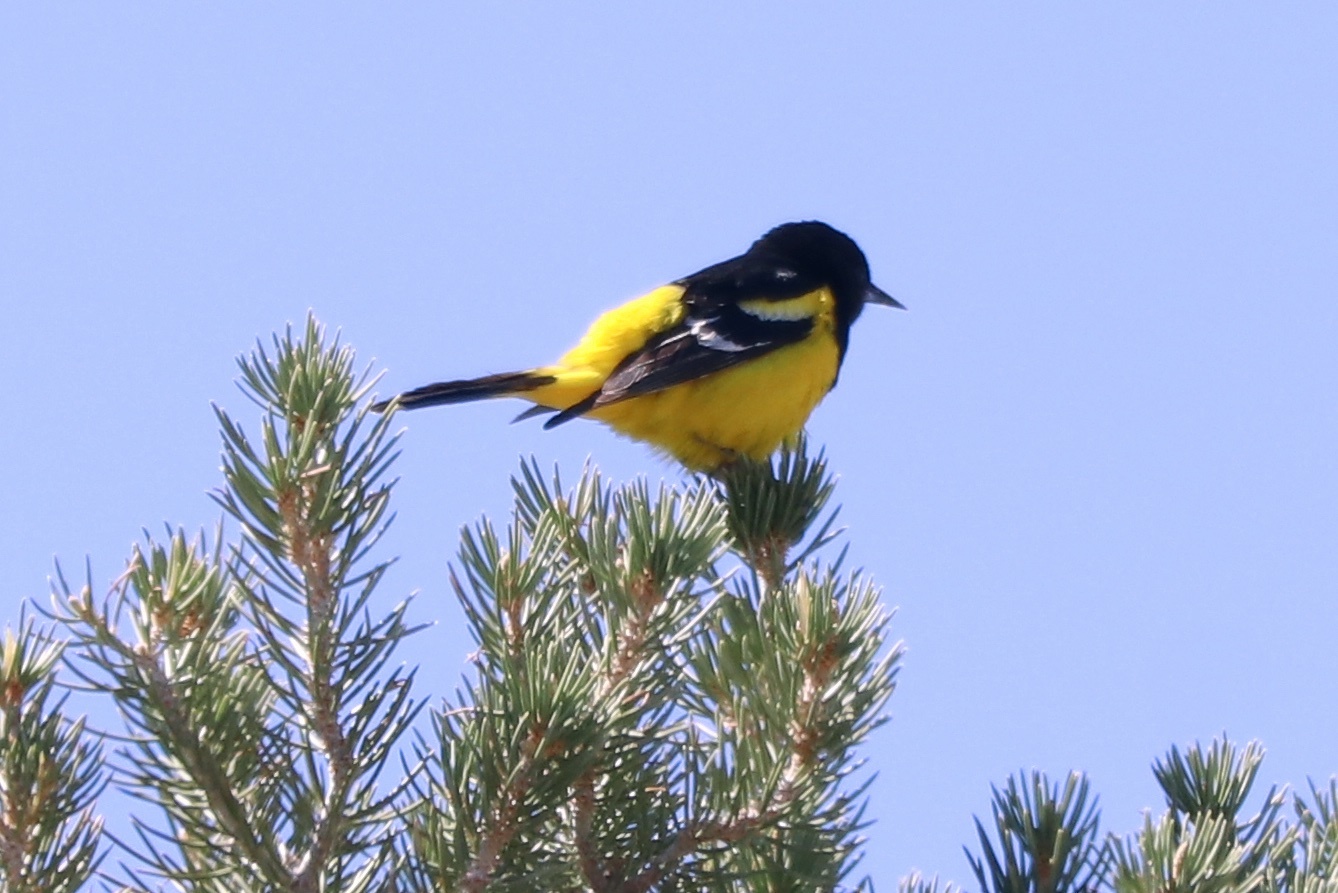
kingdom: Animalia
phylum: Chordata
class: Aves
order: Passeriformes
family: Icteridae
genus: Icterus
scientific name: Icterus parisorum
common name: Scott's oriole
